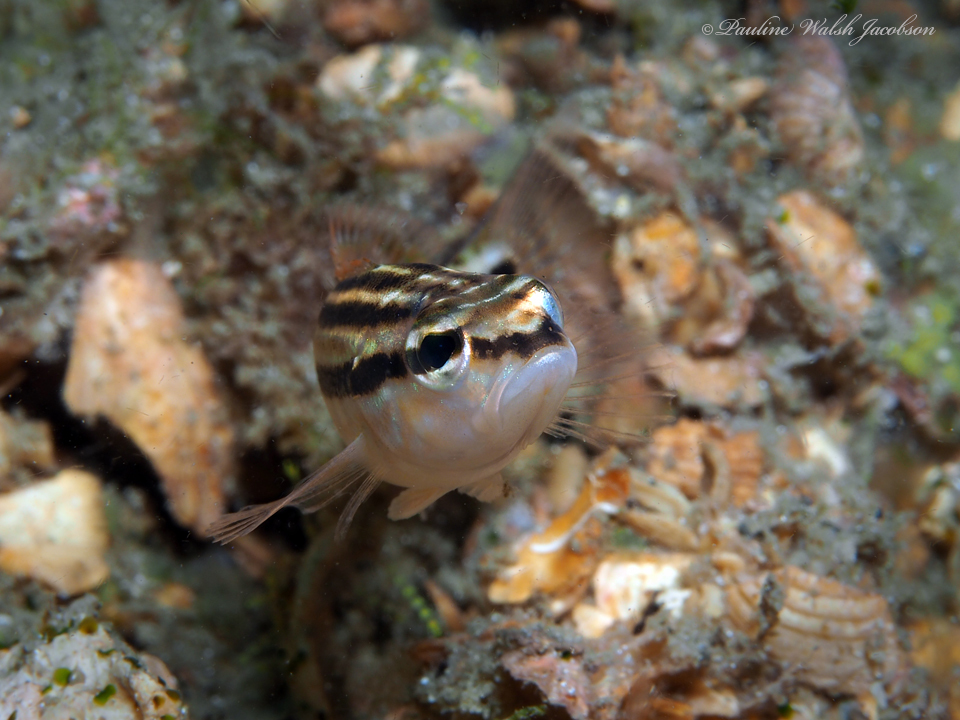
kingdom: Animalia
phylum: Chordata
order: Perciformes
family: Serranidae
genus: Diplectrum
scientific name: Diplectrum formosum
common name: Sand perch
